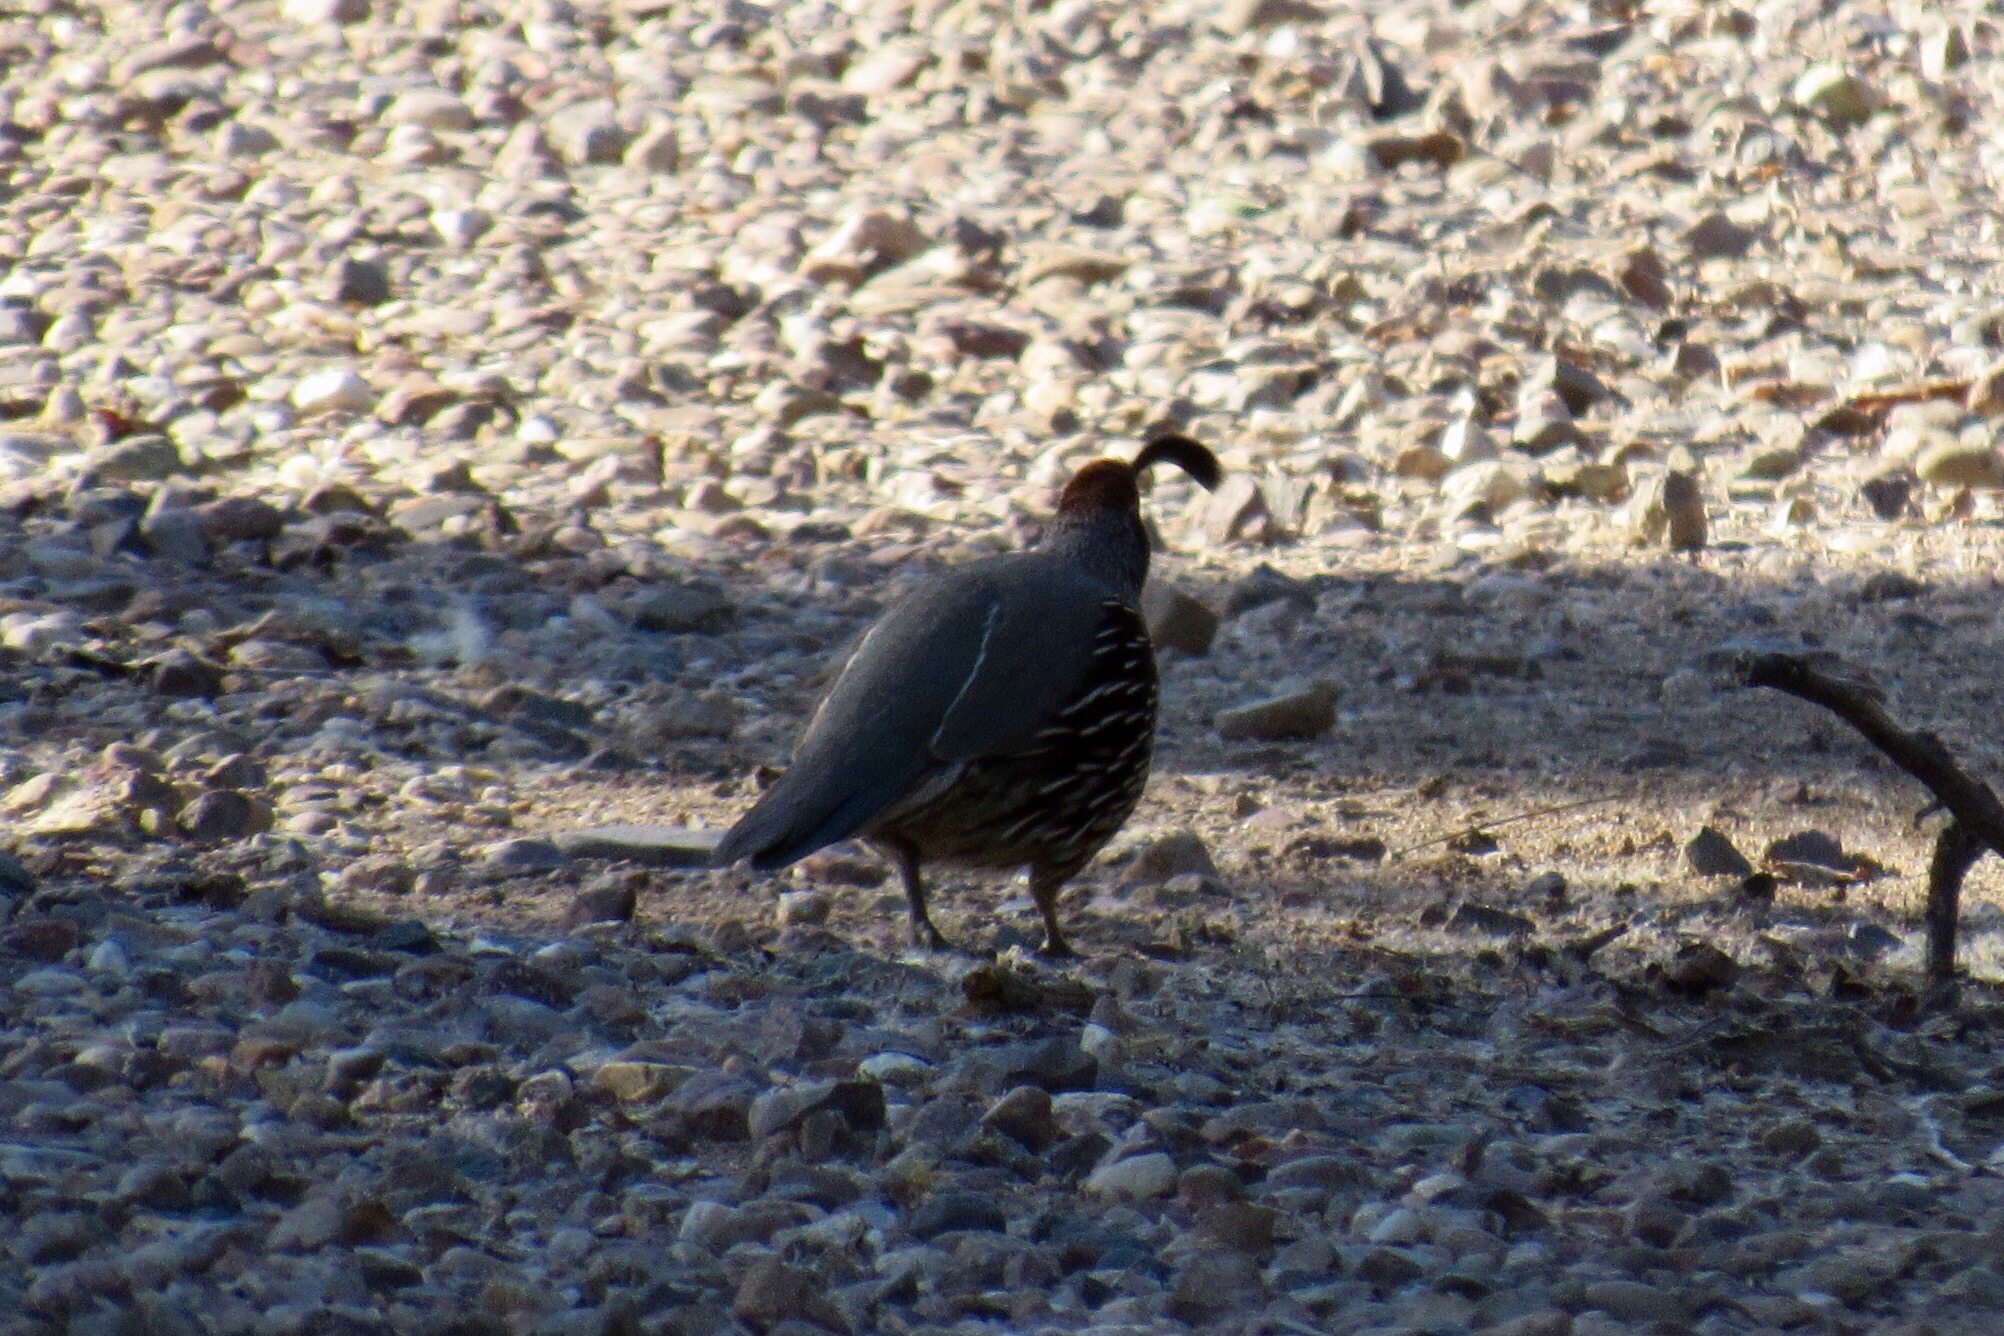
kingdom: Animalia
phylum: Chordata
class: Aves
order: Galliformes
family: Odontophoridae
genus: Callipepla
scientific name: Callipepla gambelii
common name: Gambel's quail
